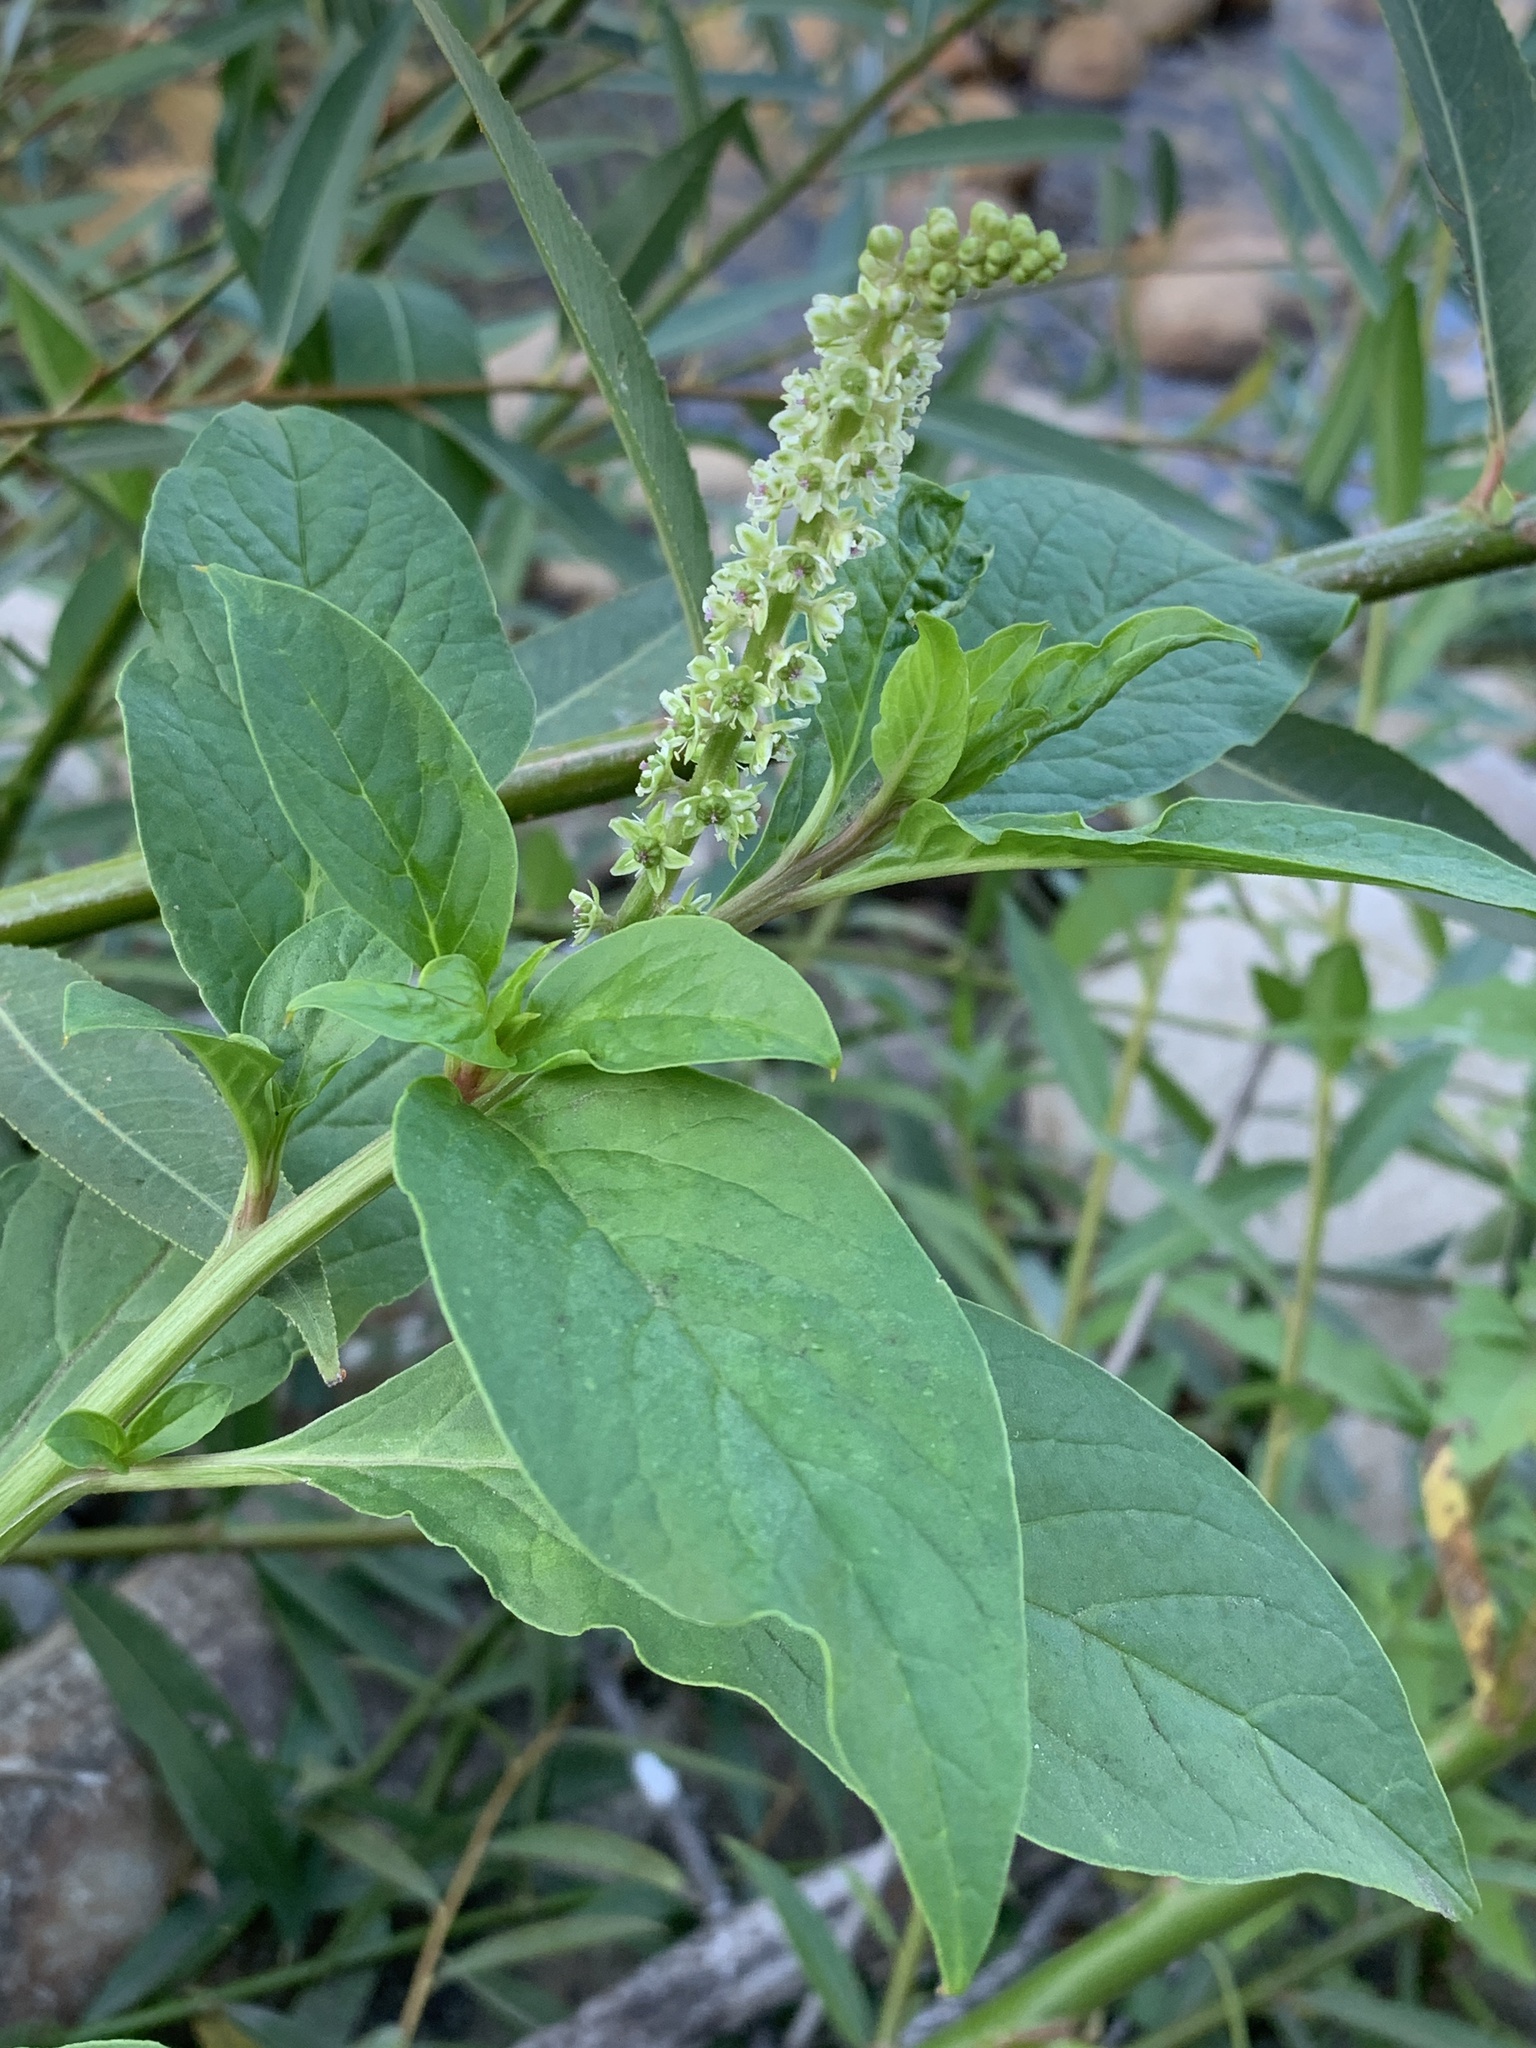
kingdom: Plantae
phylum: Tracheophyta
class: Magnoliopsida
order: Caryophyllales
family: Phytolaccaceae
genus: Phytolacca
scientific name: Phytolacca icosandra
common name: Button pokeweed
